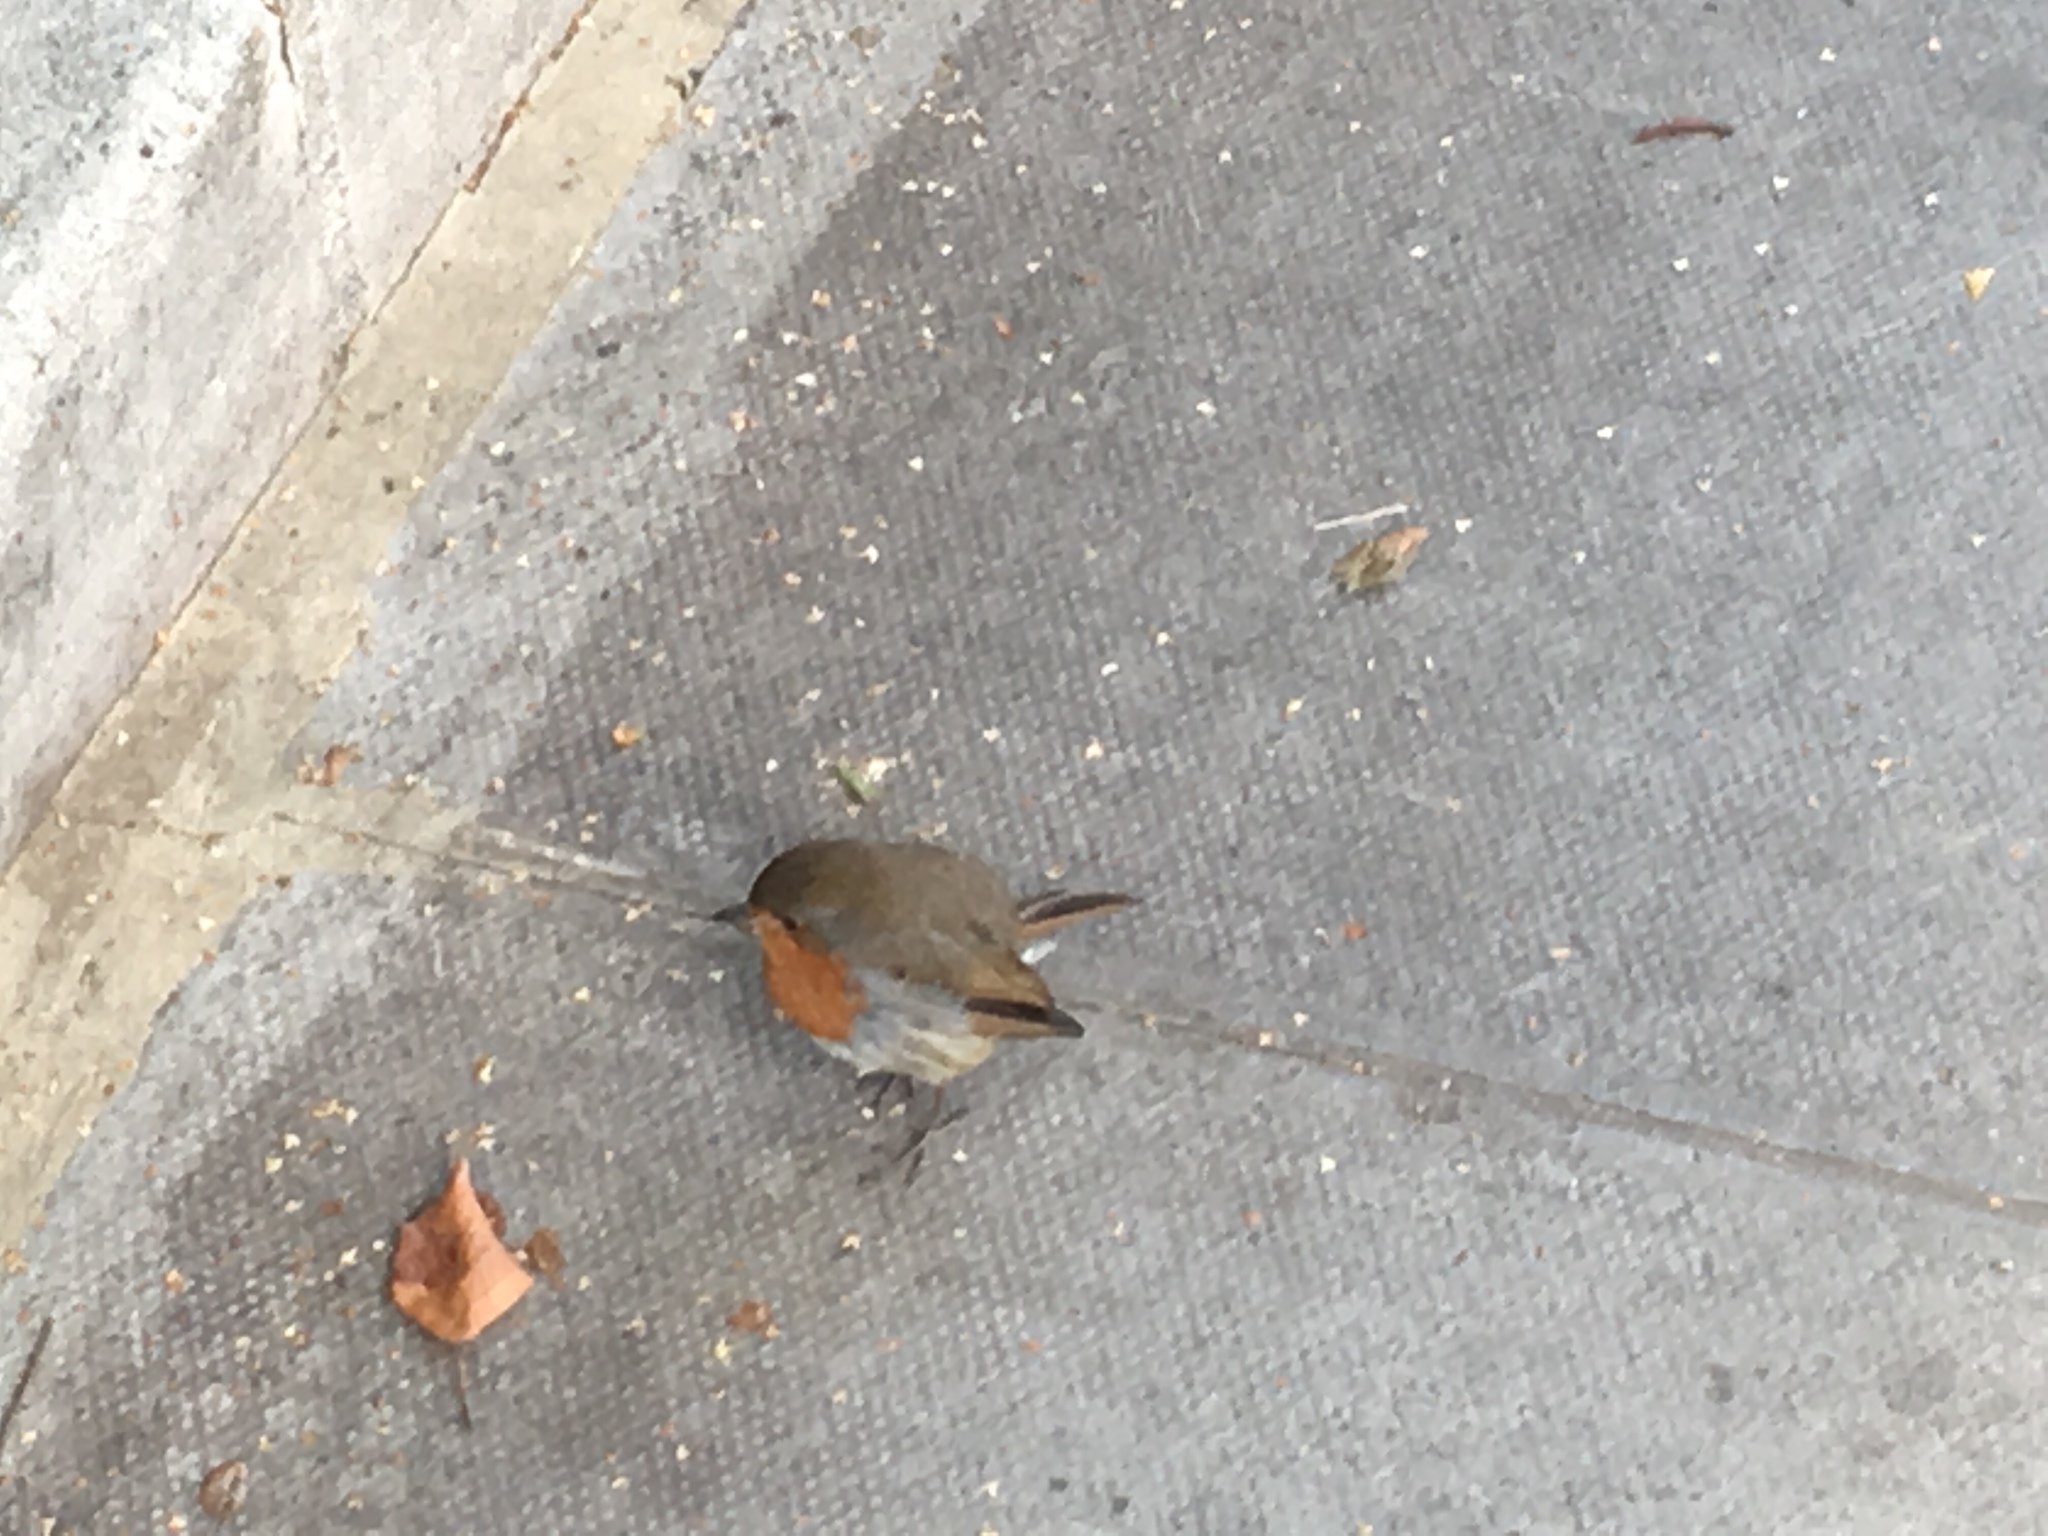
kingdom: Animalia
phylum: Chordata
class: Aves
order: Passeriformes
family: Muscicapidae
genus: Erithacus
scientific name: Erithacus rubecula
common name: European robin
